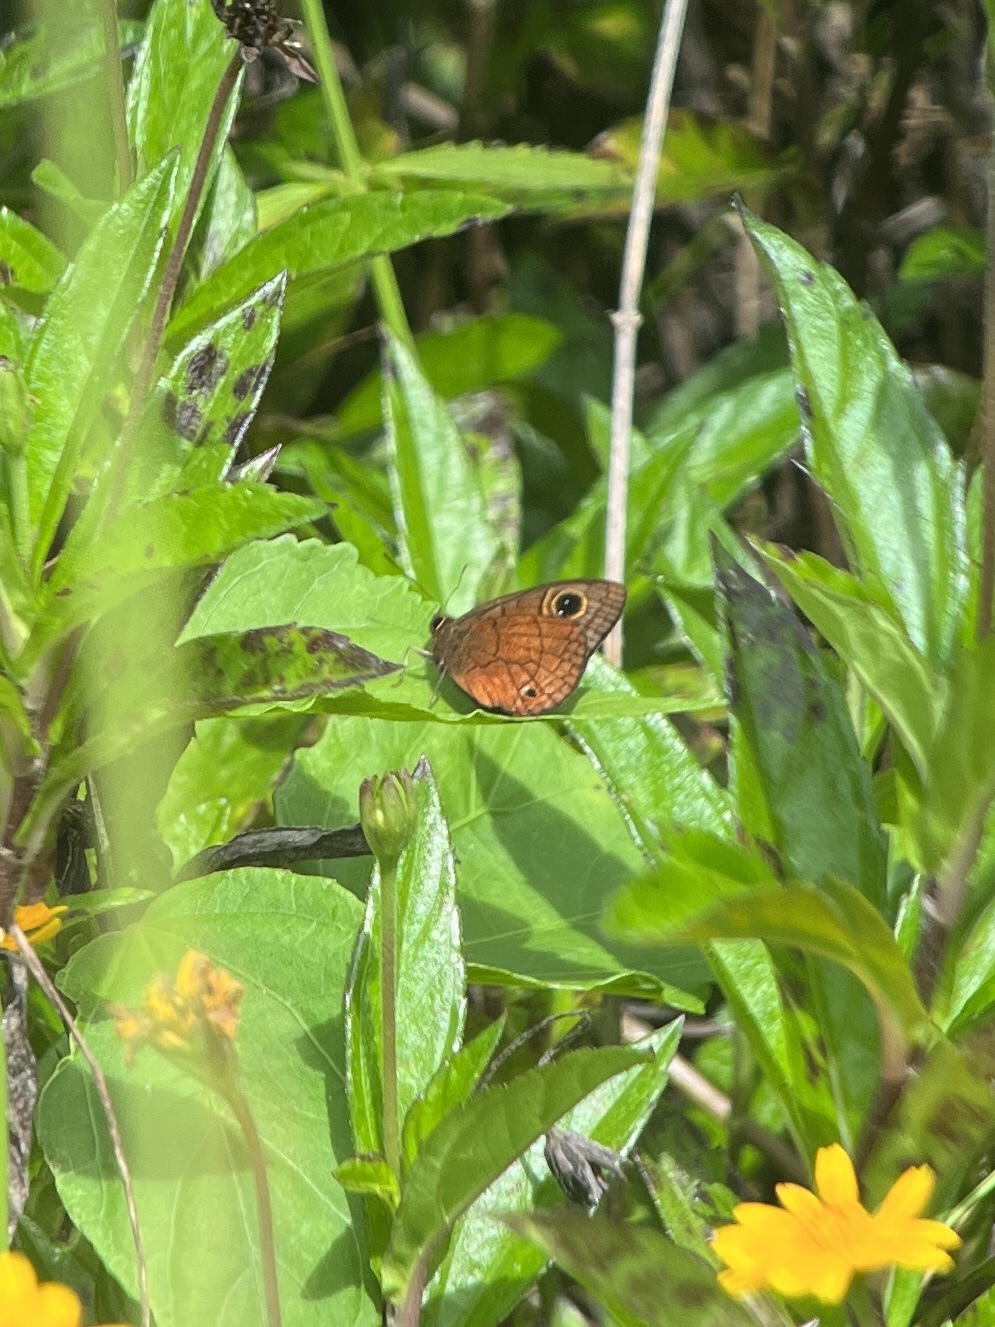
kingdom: Animalia
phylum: Arthropoda
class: Insecta
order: Lepidoptera
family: Nymphalidae
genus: Calisto
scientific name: Calisto nubila
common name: Puerto rican calisto
